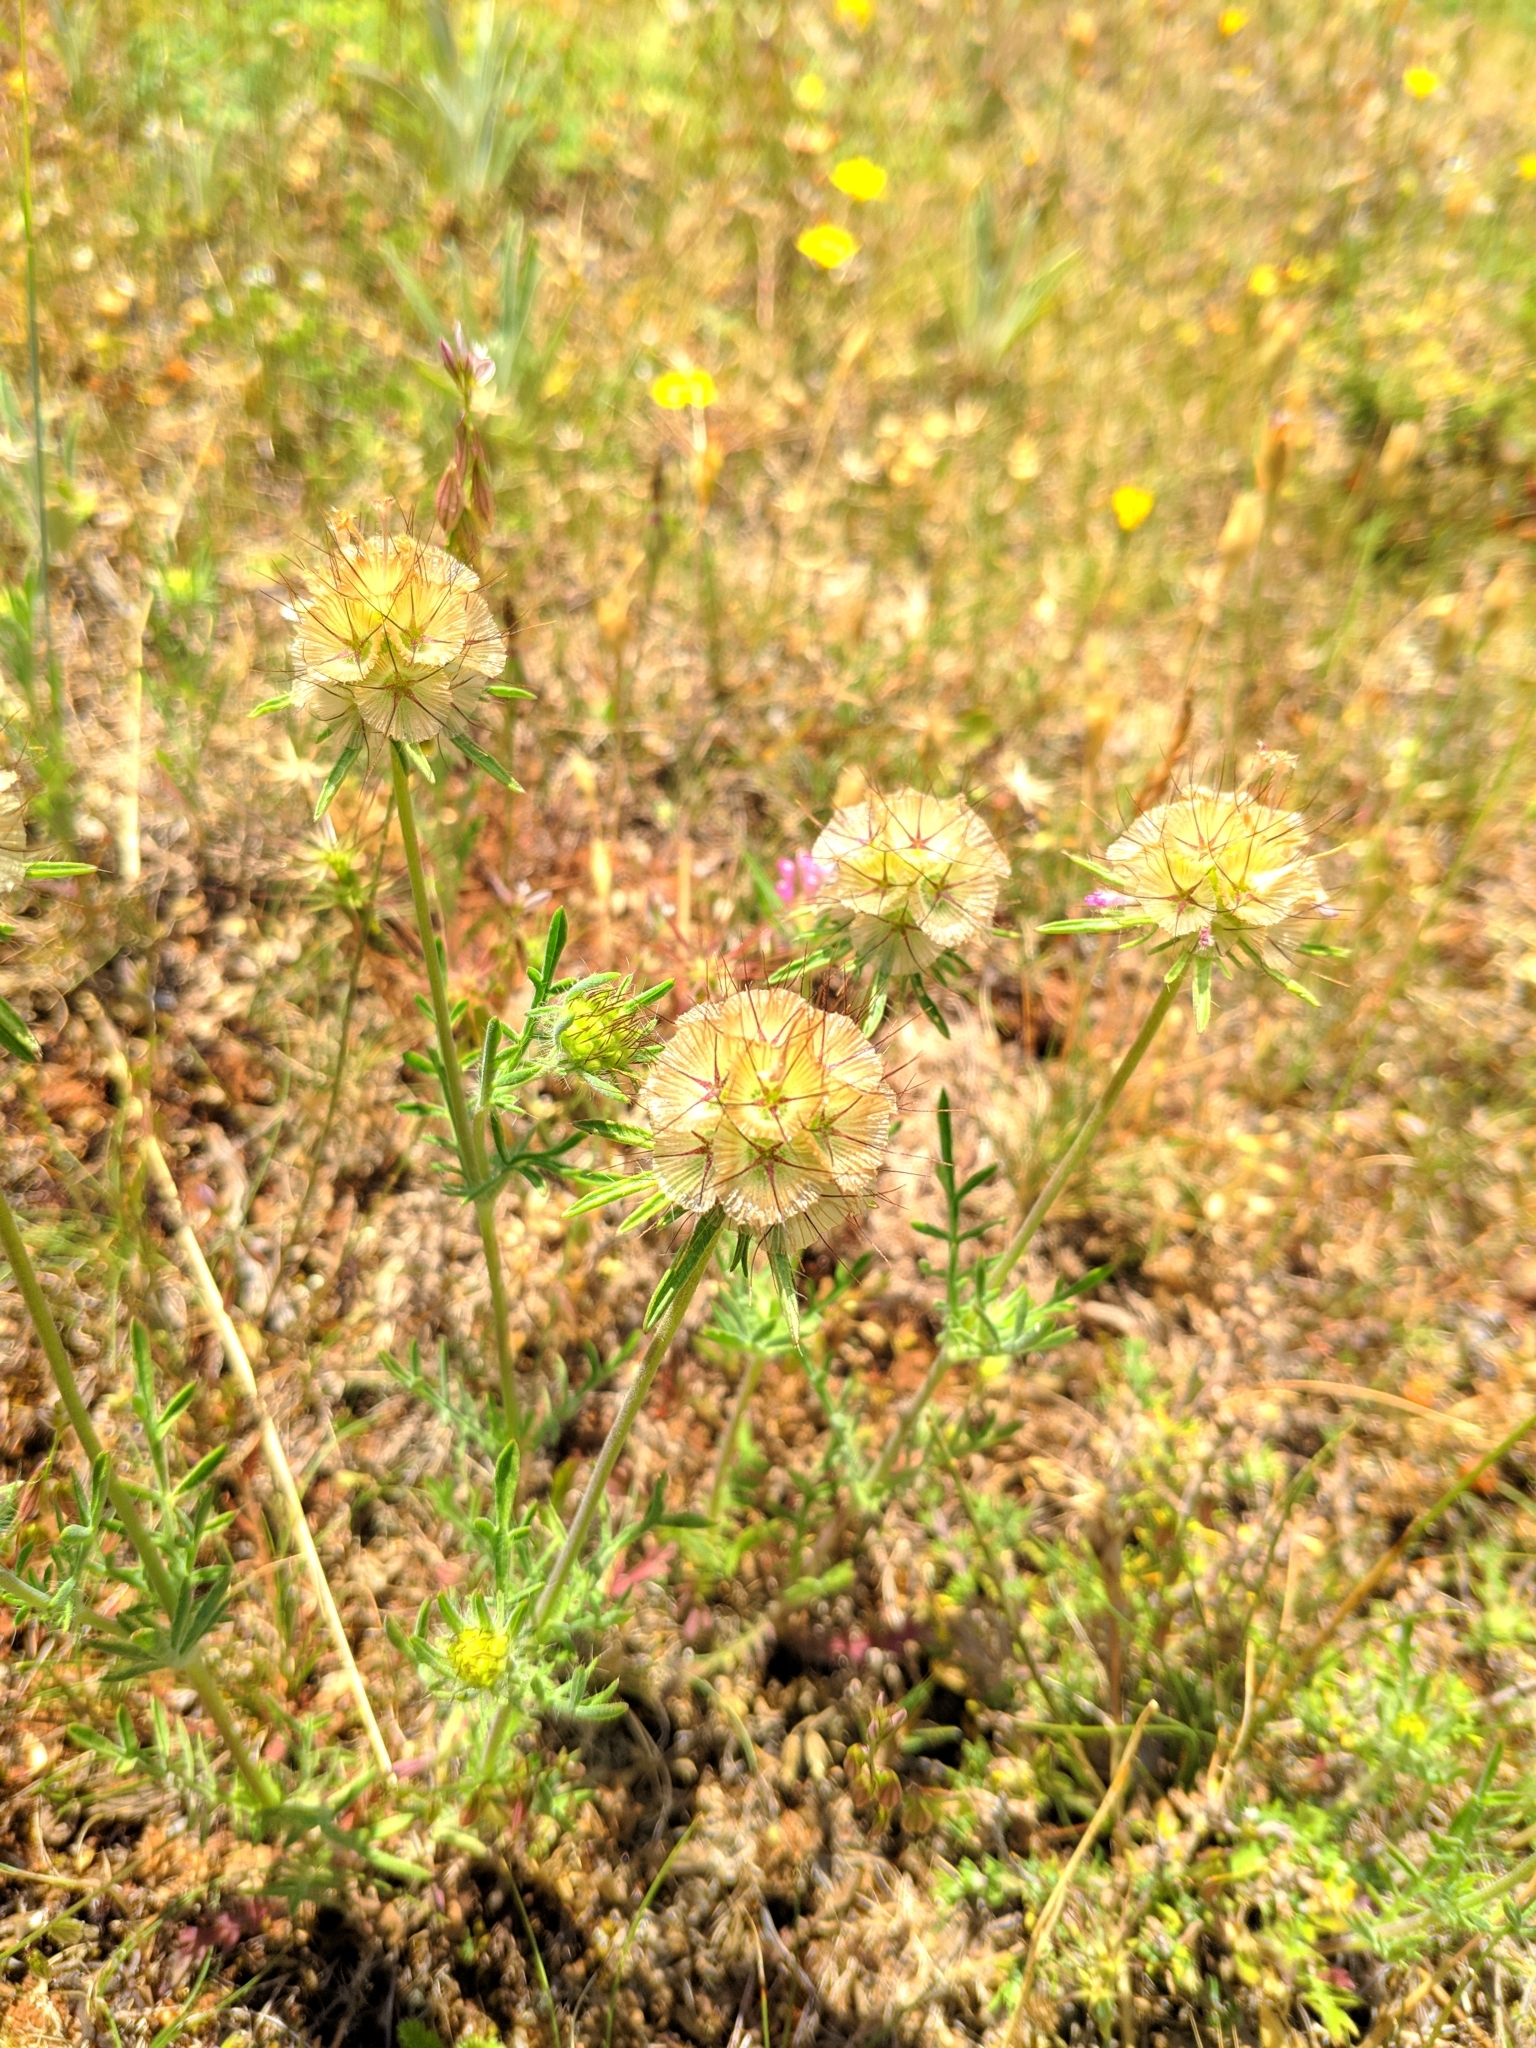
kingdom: Plantae
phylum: Tracheophyta
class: Magnoliopsida
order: Dipsacales
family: Caprifoliaceae
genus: Lomelosia
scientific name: Lomelosia stellata
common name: Teasel
